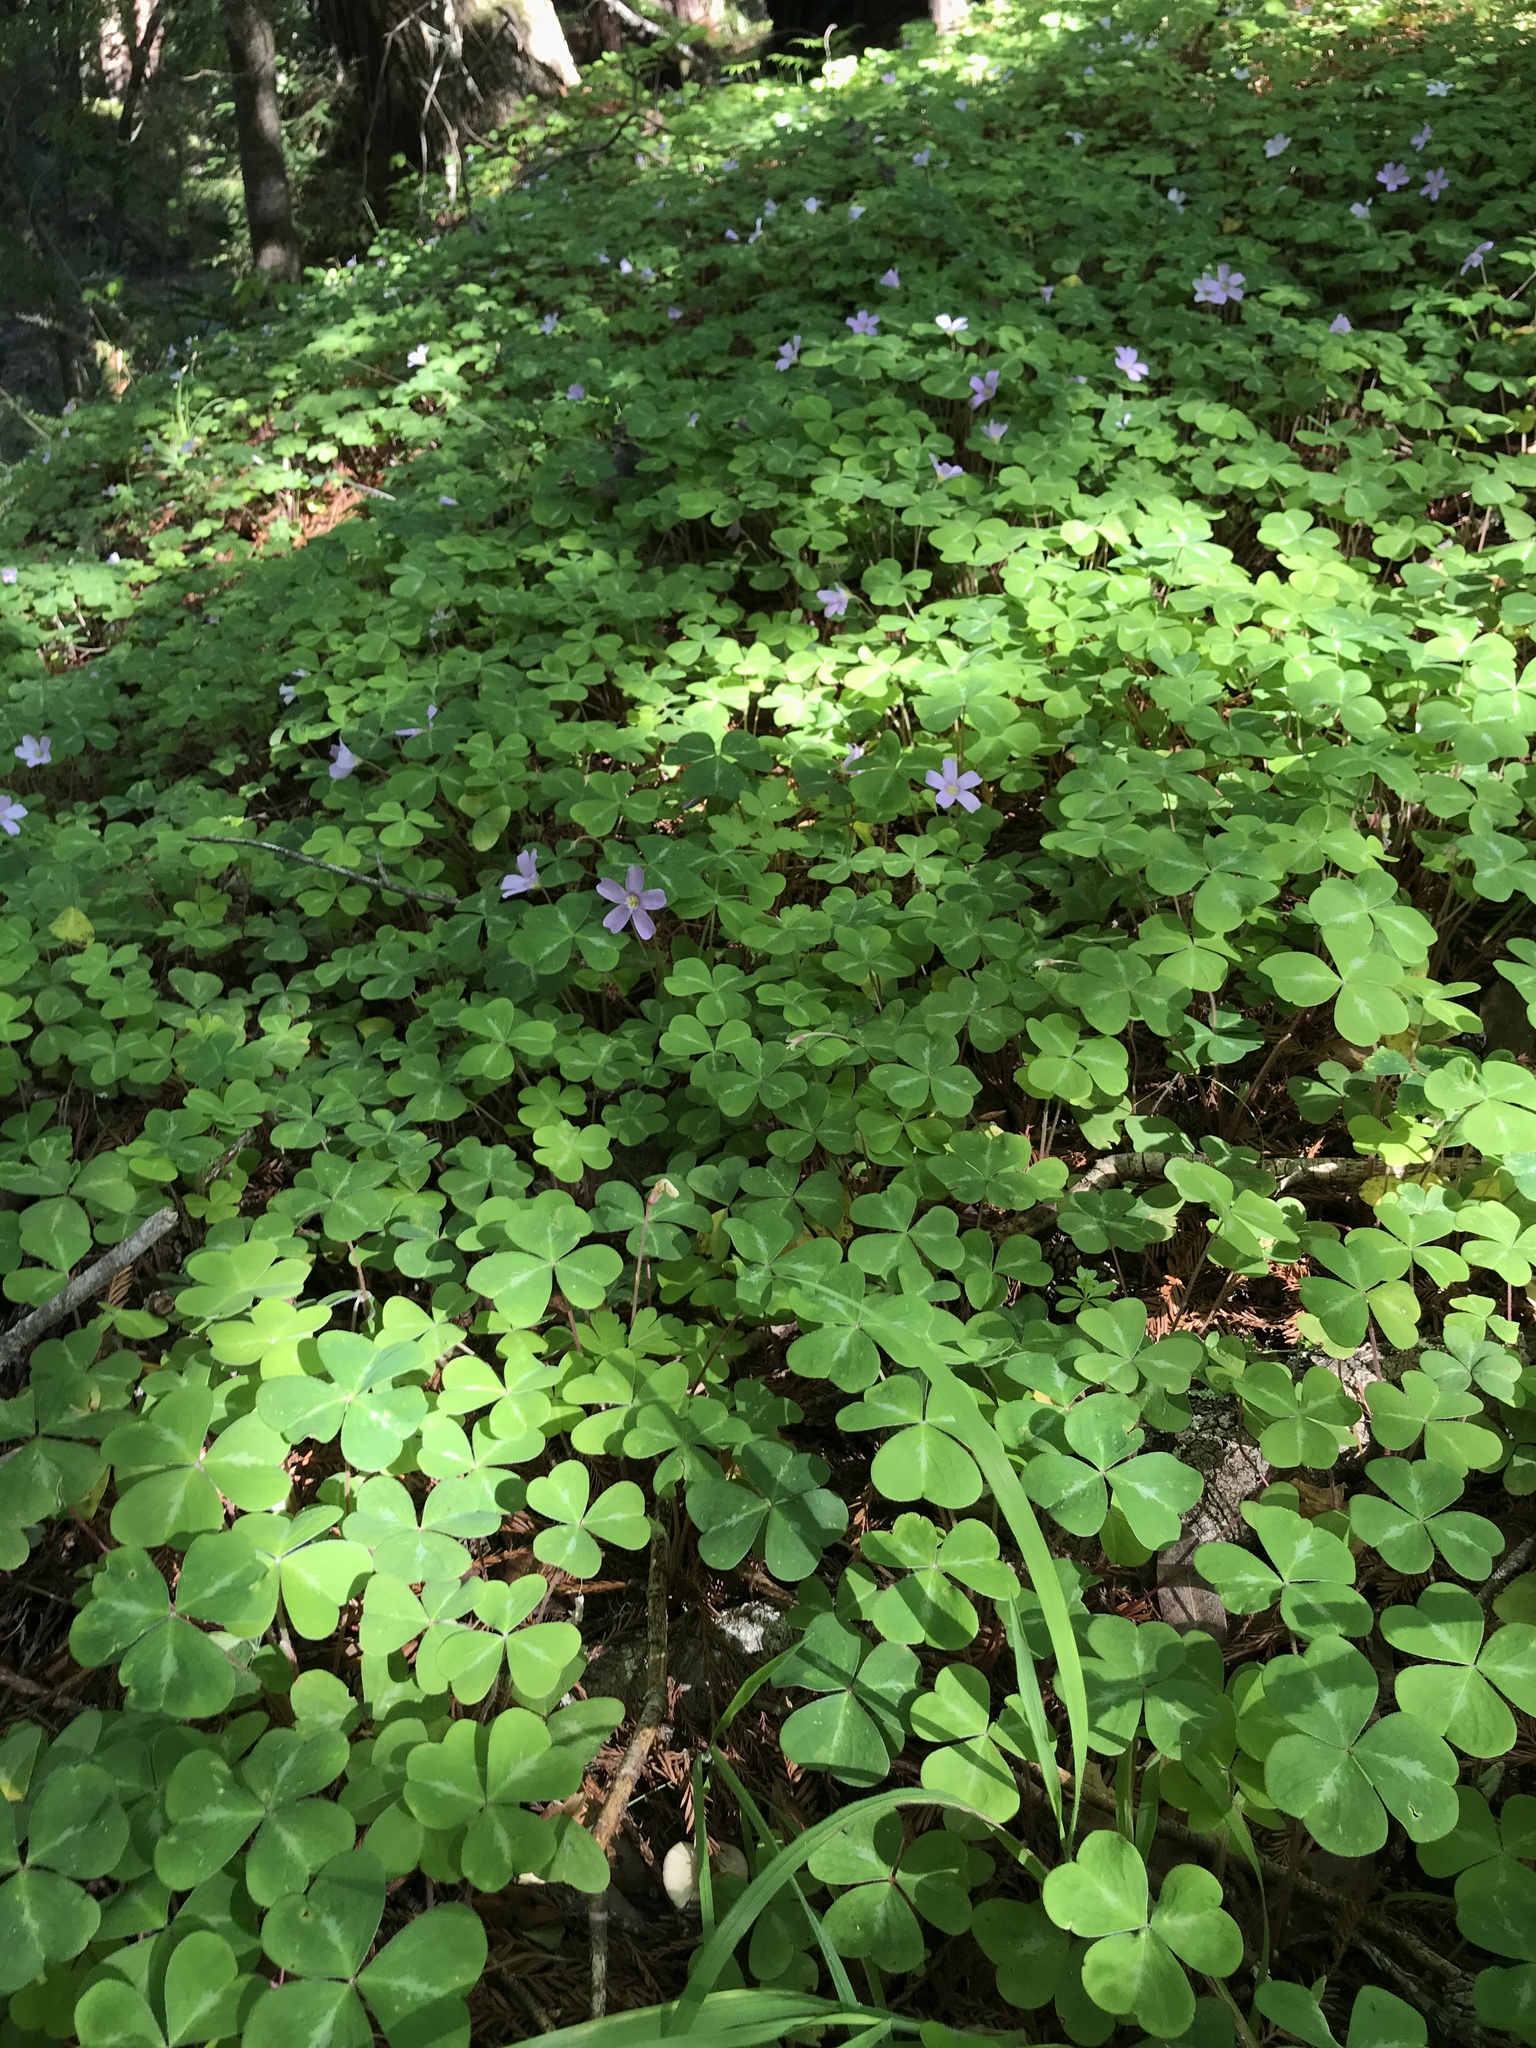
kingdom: Plantae
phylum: Tracheophyta
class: Magnoliopsida
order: Oxalidales
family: Oxalidaceae
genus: Oxalis
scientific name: Oxalis oregana
